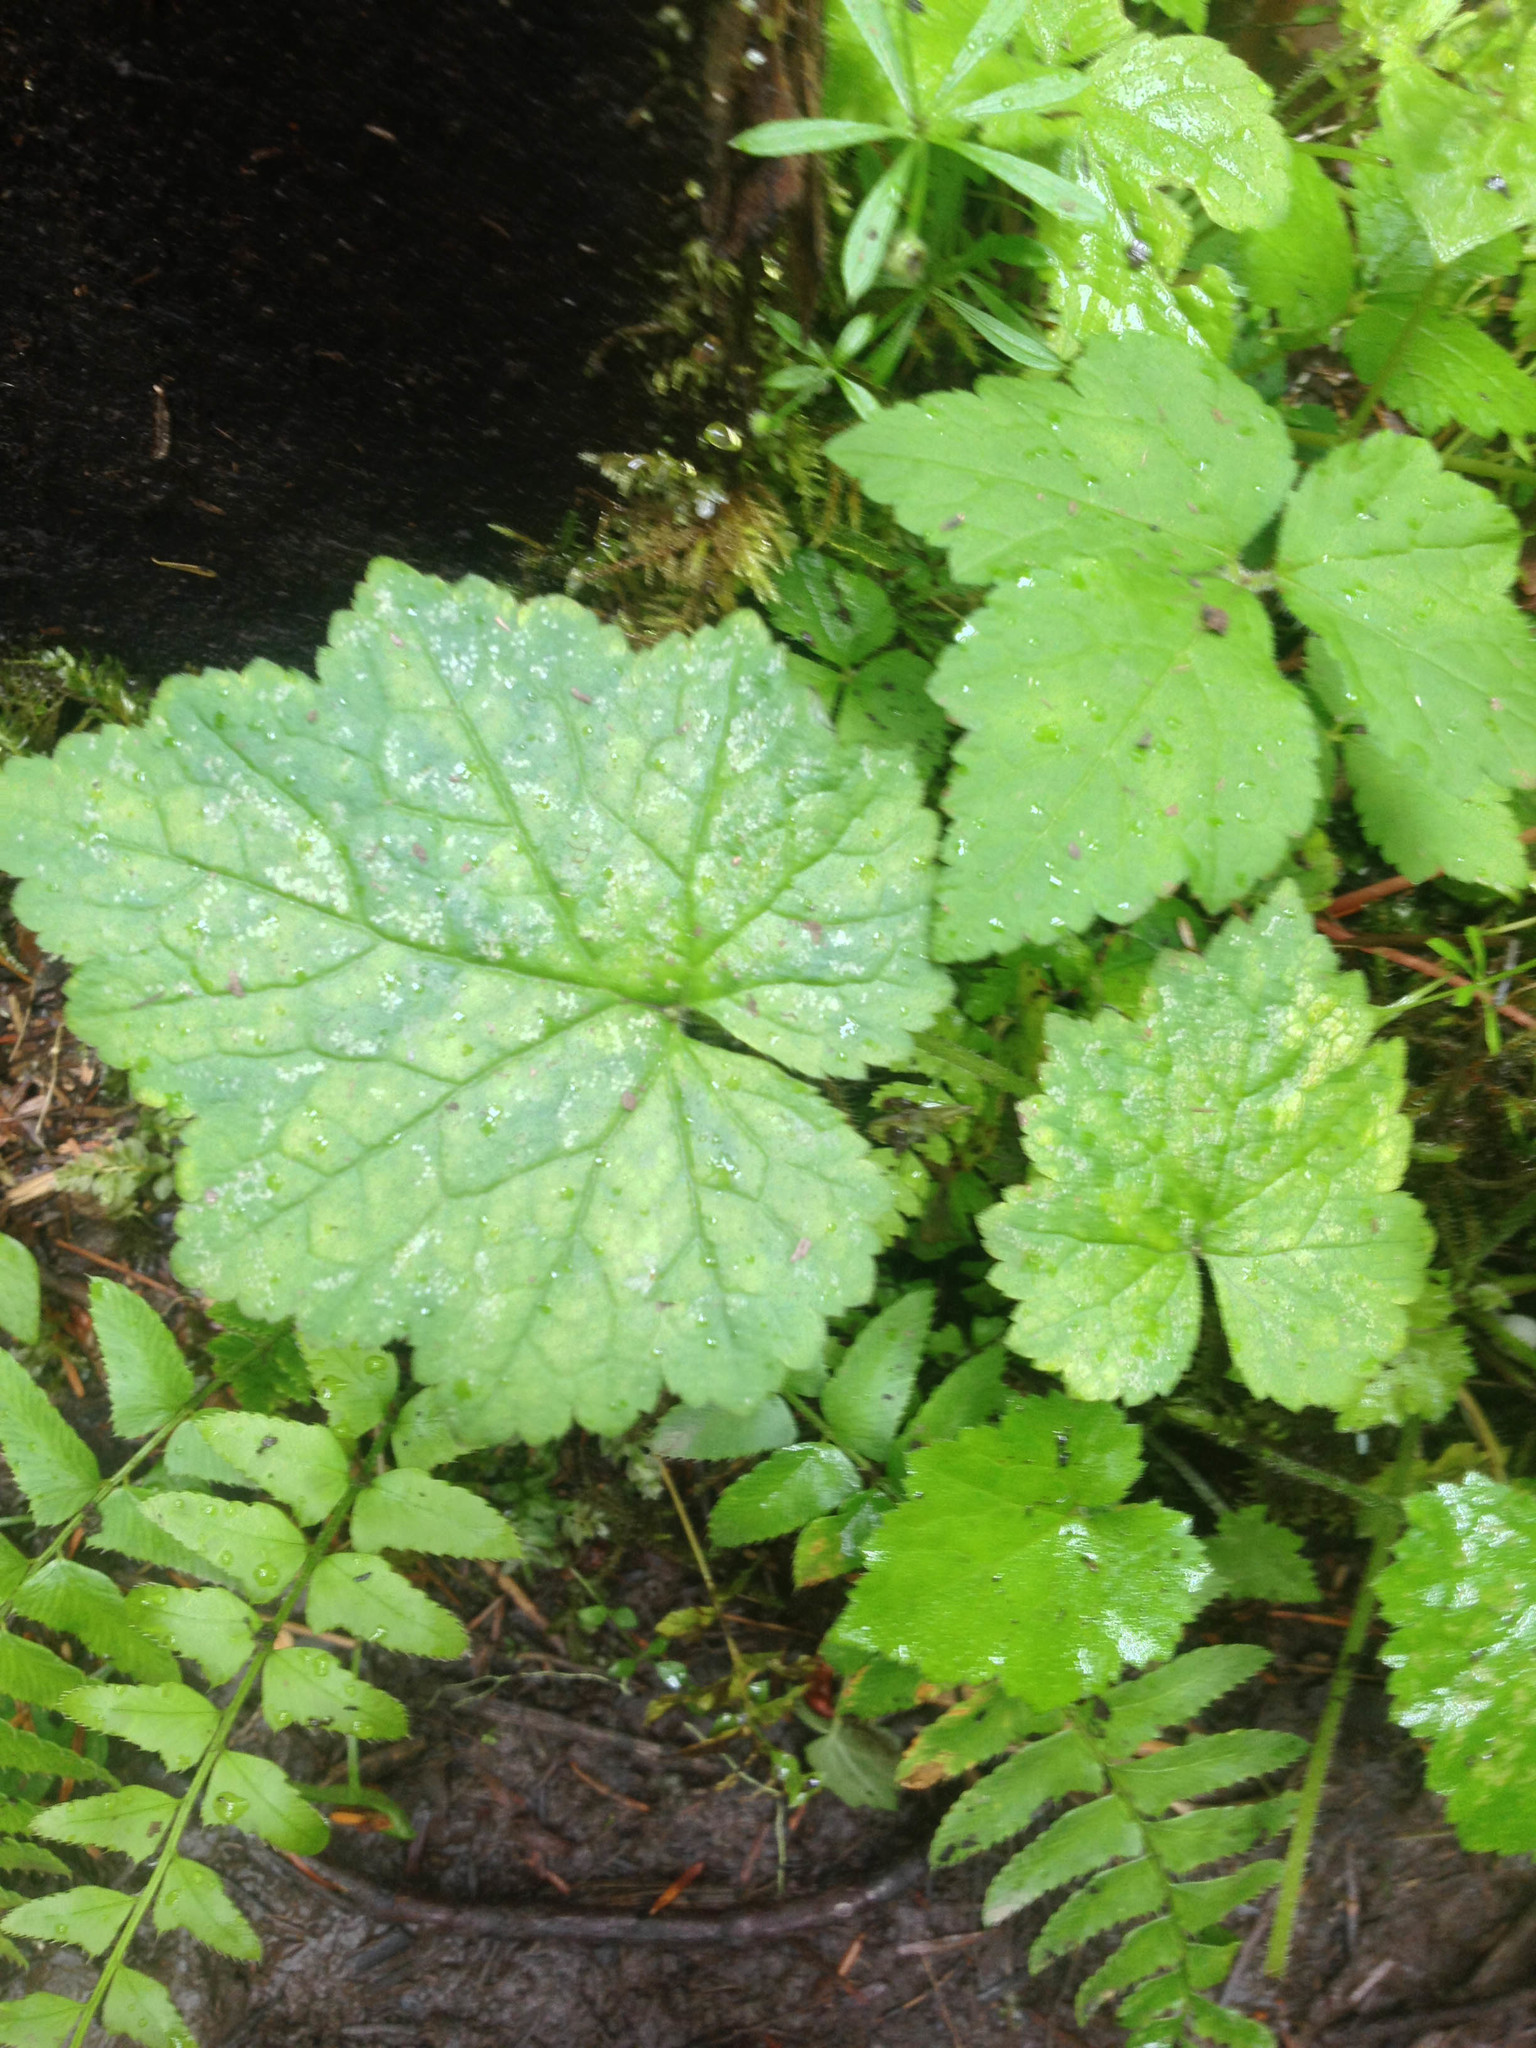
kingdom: Plantae
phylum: Tracheophyta
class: Magnoliopsida
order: Saxifragales
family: Saxifragaceae
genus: Tolmiea
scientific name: Tolmiea menziesii
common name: Pick-a-back-plant
